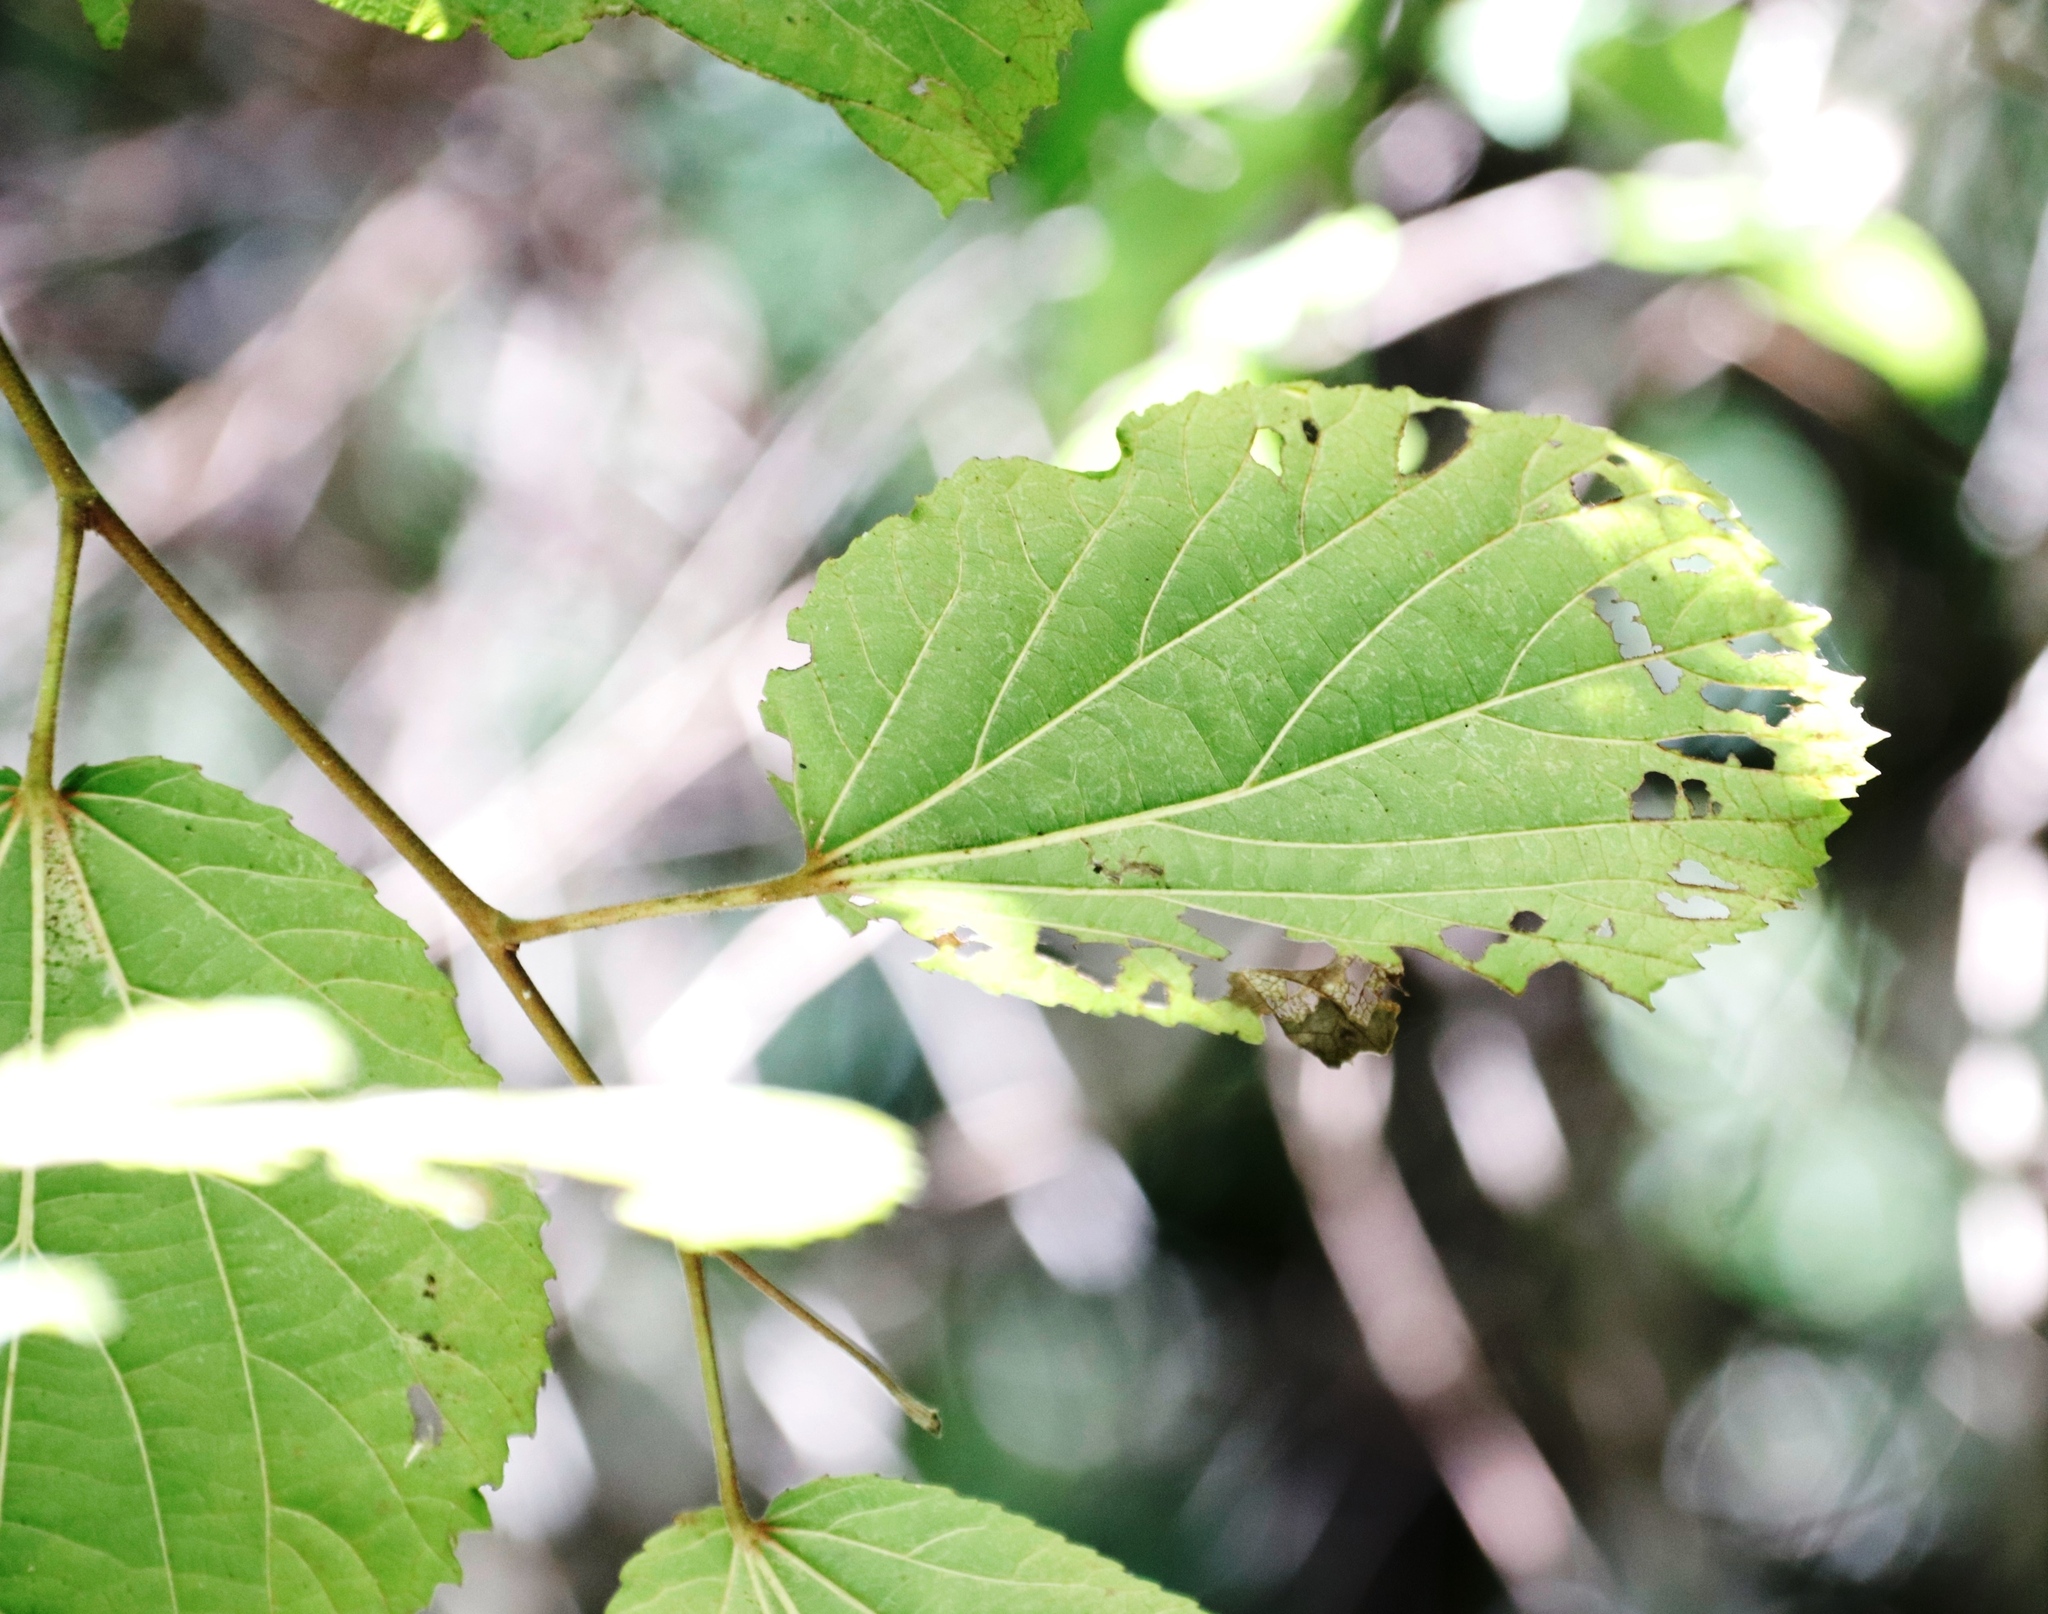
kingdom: Plantae
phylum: Tracheophyta
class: Magnoliopsida
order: Malpighiales
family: Salicaceae
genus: Trimeria
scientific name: Trimeria grandifolia
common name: Wild mulberry
